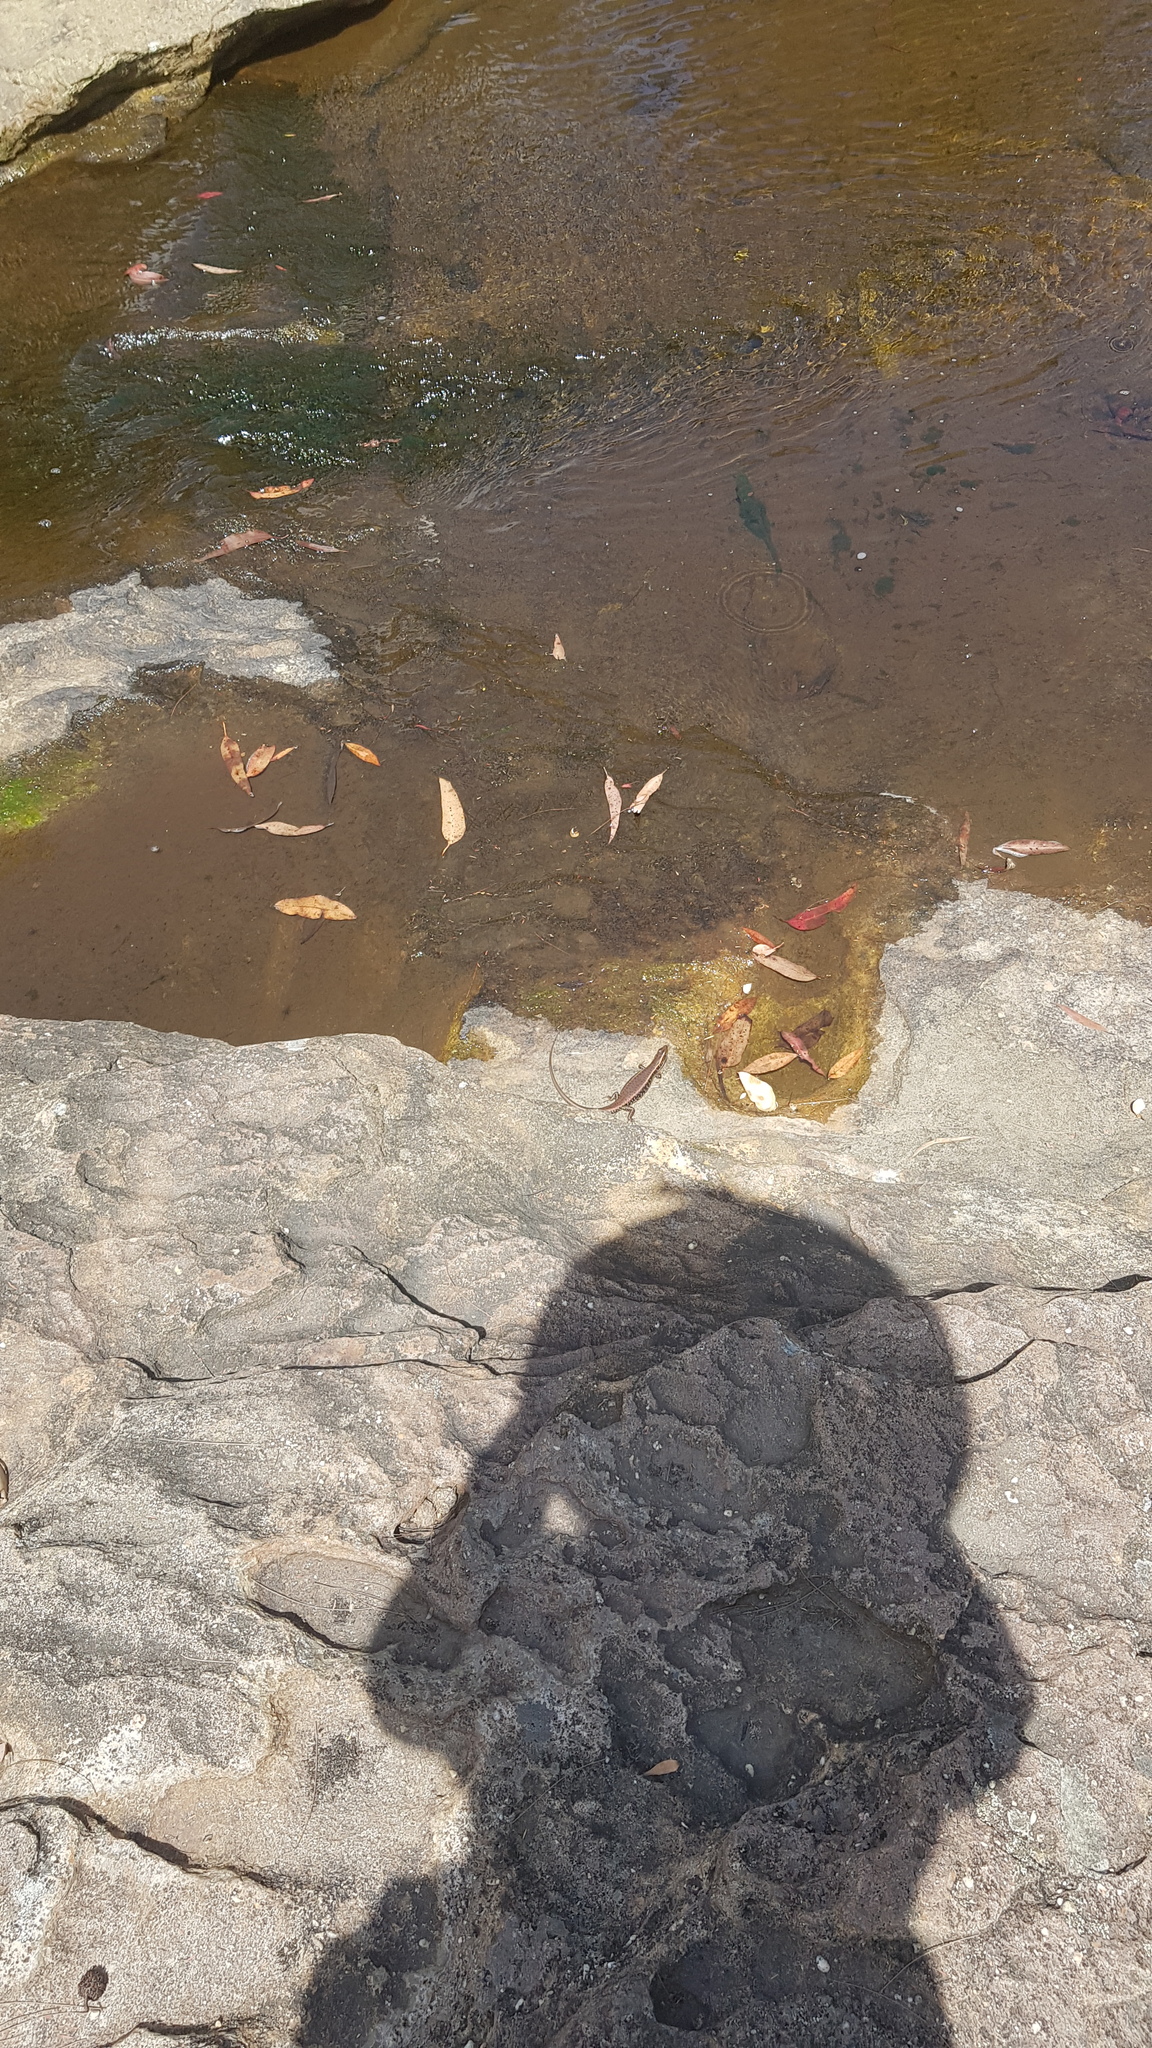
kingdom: Animalia
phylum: Chordata
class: Squamata
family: Scincidae
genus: Eulamprus
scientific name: Eulamprus quoyii
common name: Eastern water skink
